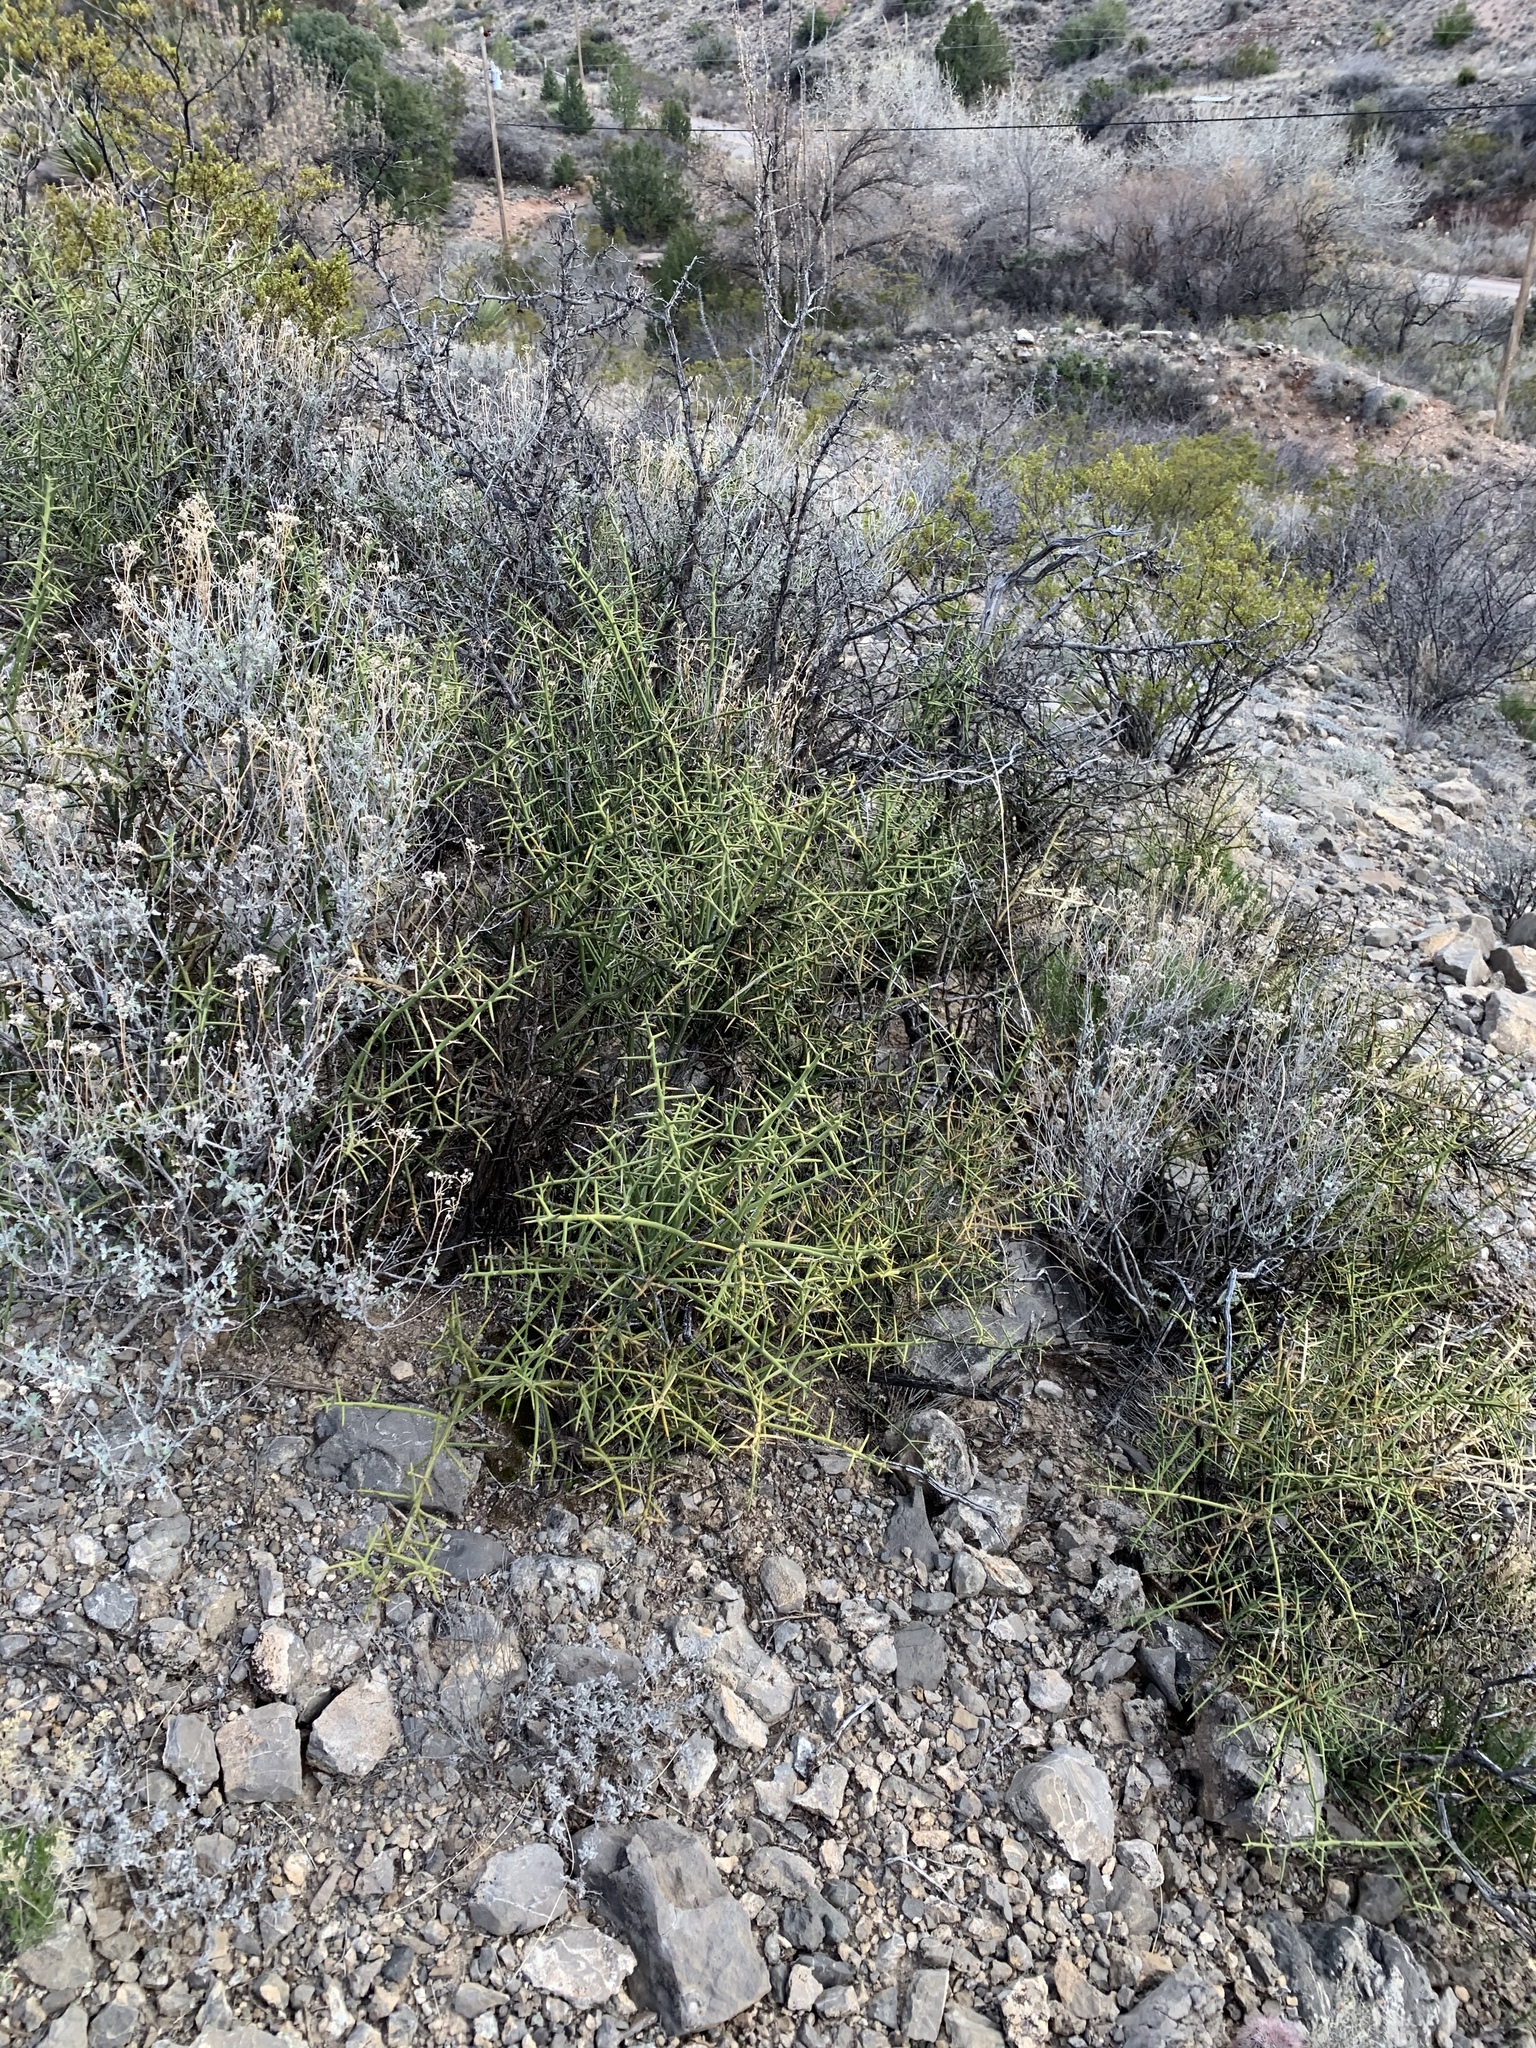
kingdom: Plantae
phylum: Tracheophyta
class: Magnoliopsida
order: Brassicales
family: Koeberliniaceae
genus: Koeberlinia
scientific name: Koeberlinia spinosa
